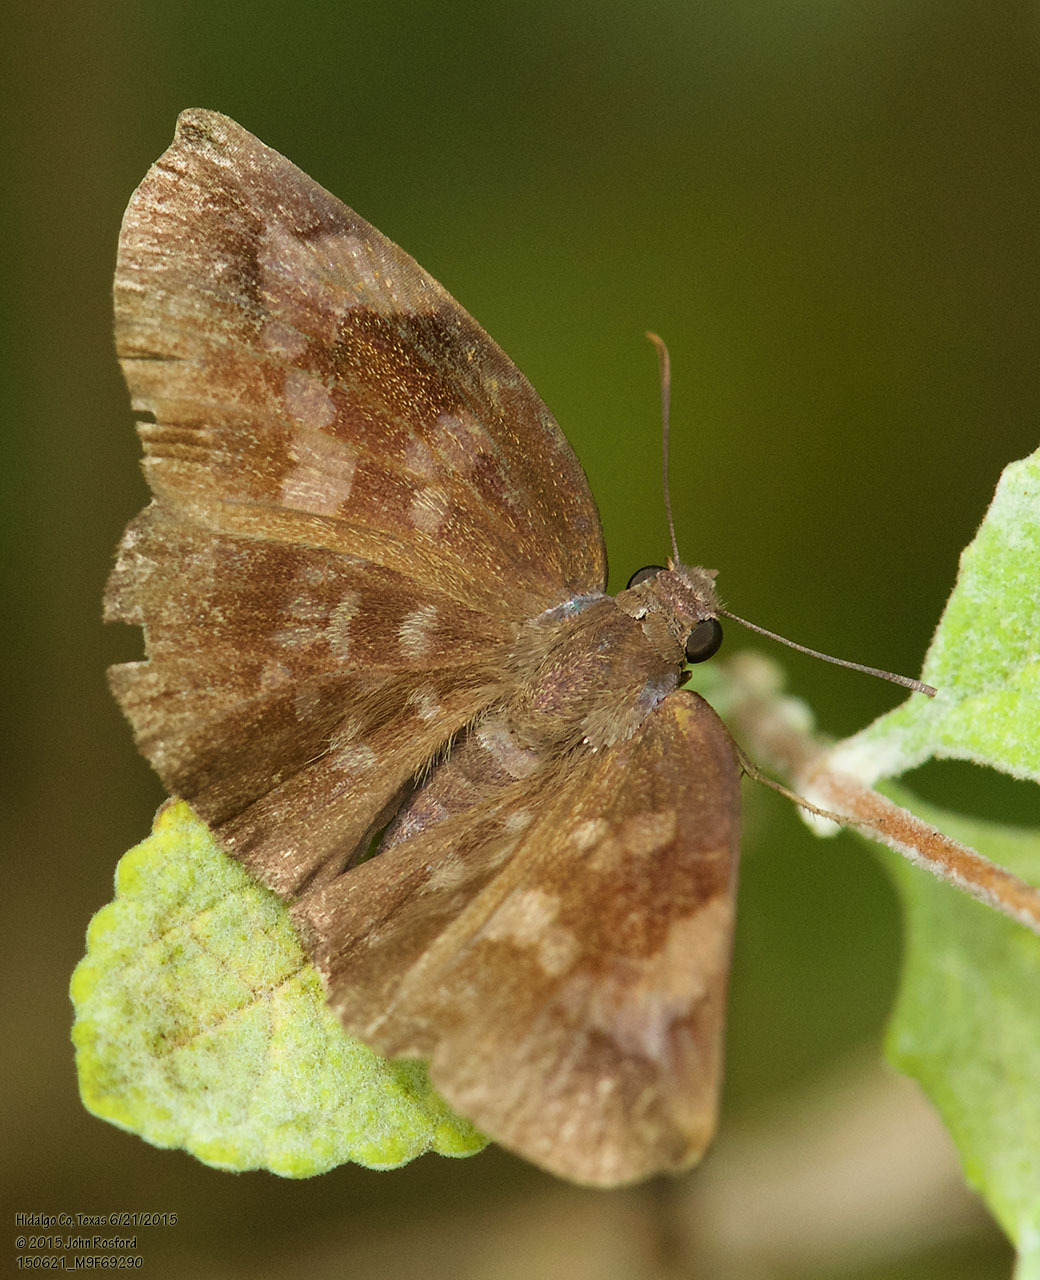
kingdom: Animalia
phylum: Arthropoda
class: Insecta
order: Lepidoptera
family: Hesperiidae
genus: Achlyodes
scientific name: Achlyodes thraso
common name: Sickle-winged skipper
